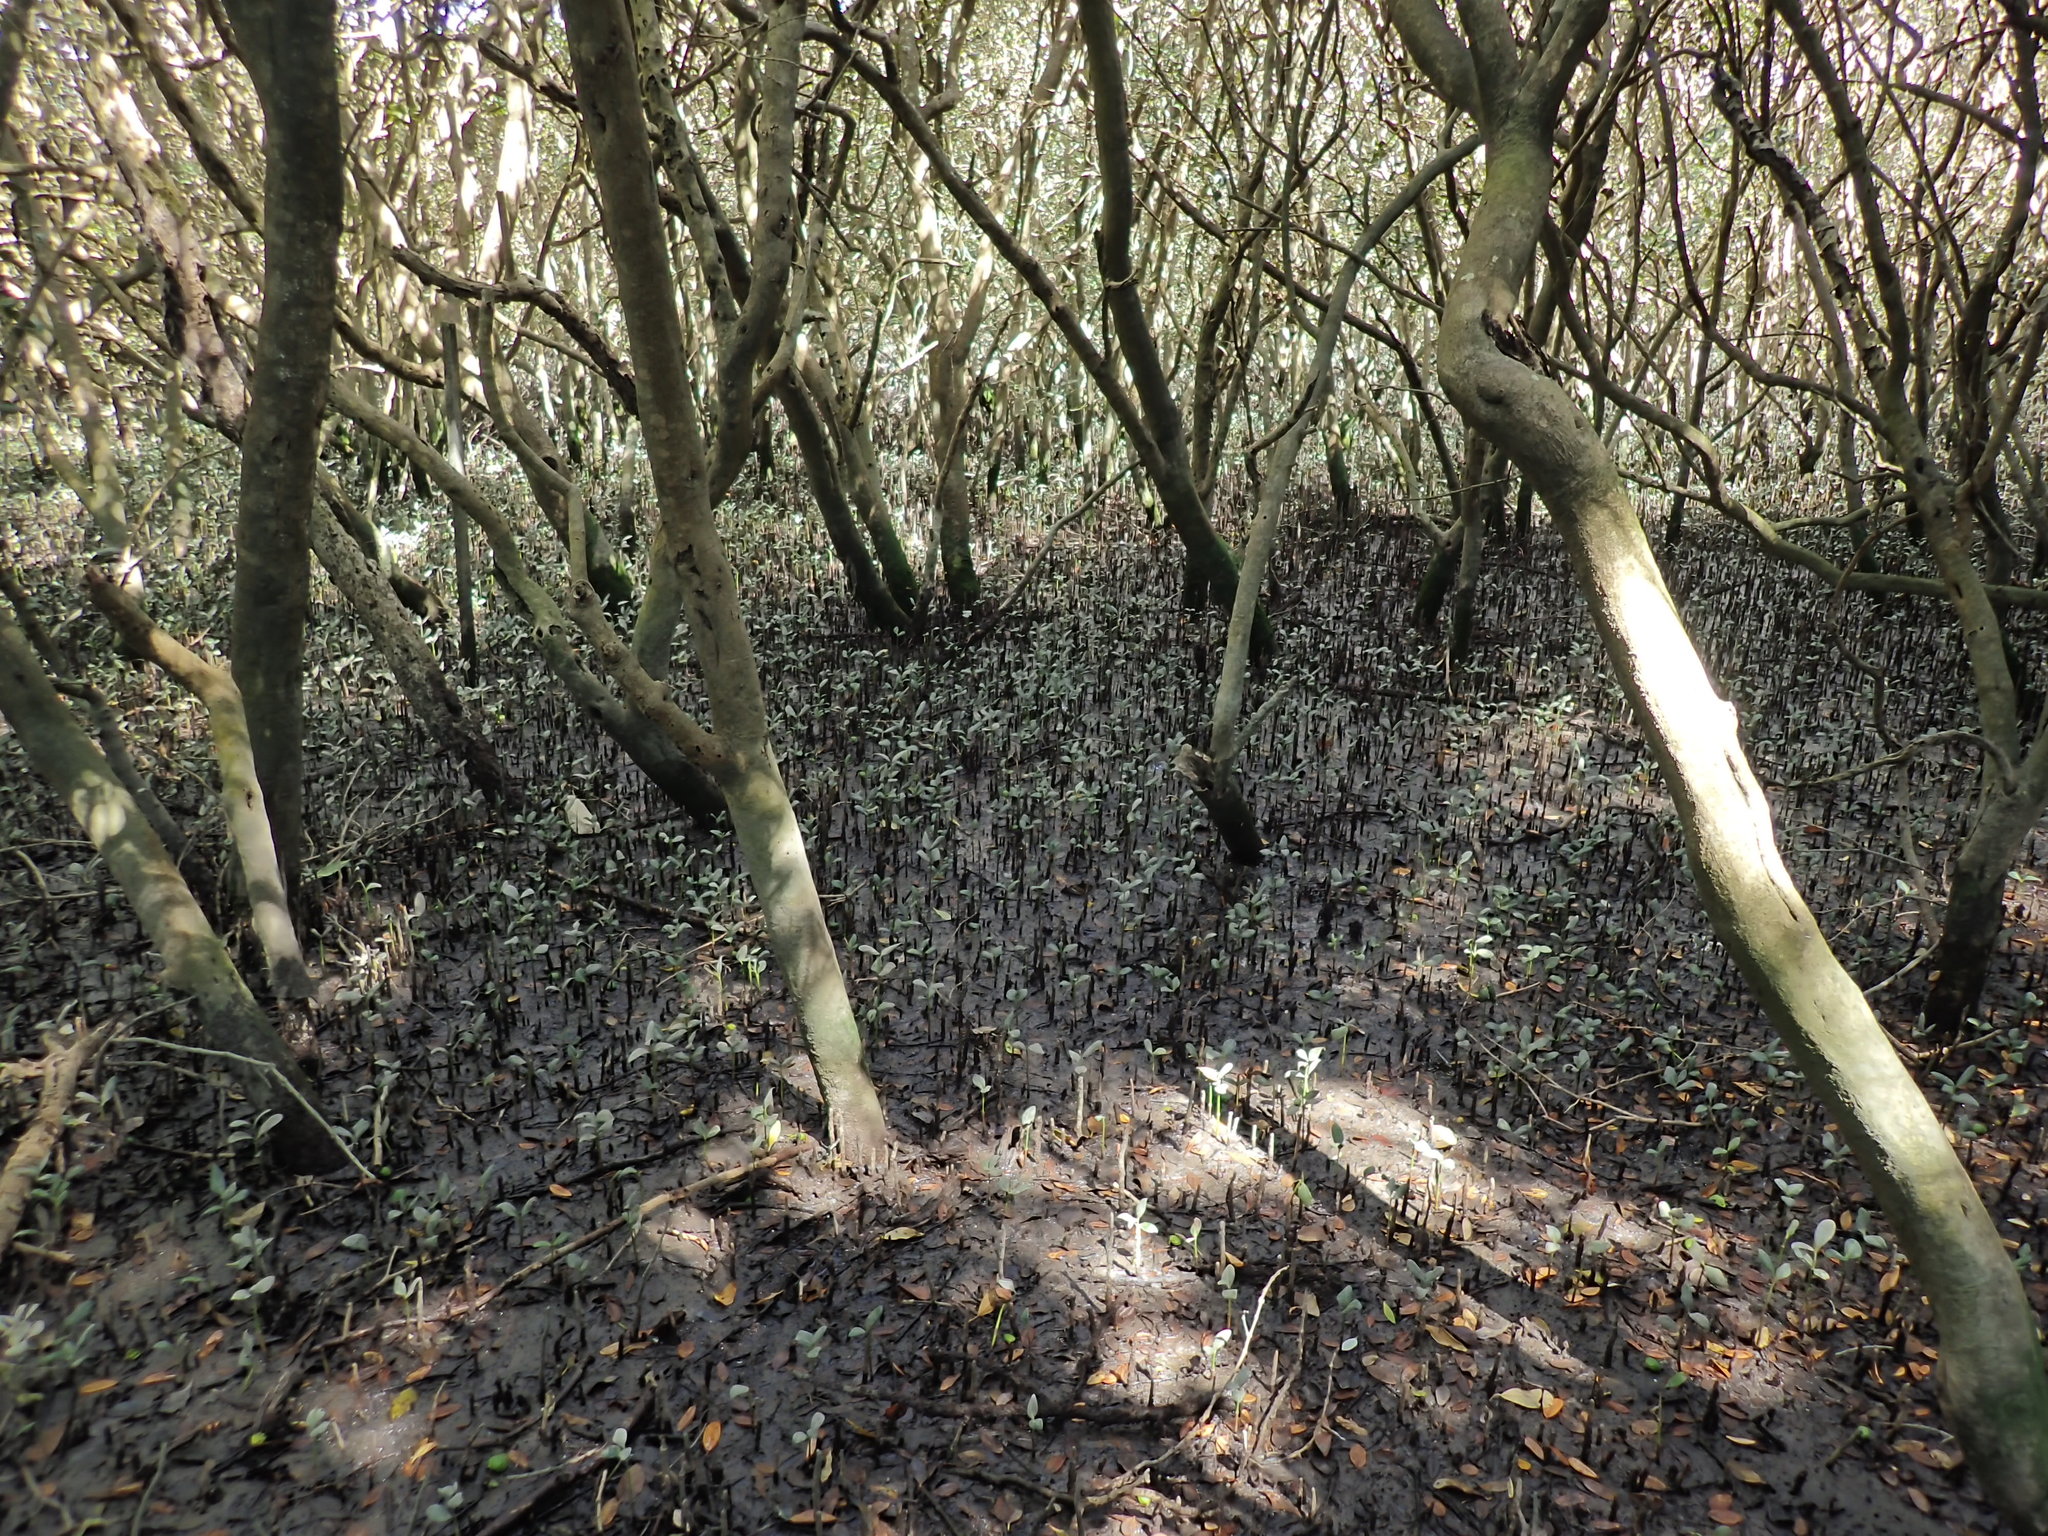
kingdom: Plantae
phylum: Tracheophyta
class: Magnoliopsida
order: Lamiales
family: Acanthaceae
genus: Avicennia
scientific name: Avicennia marina
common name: Gray mangrove
